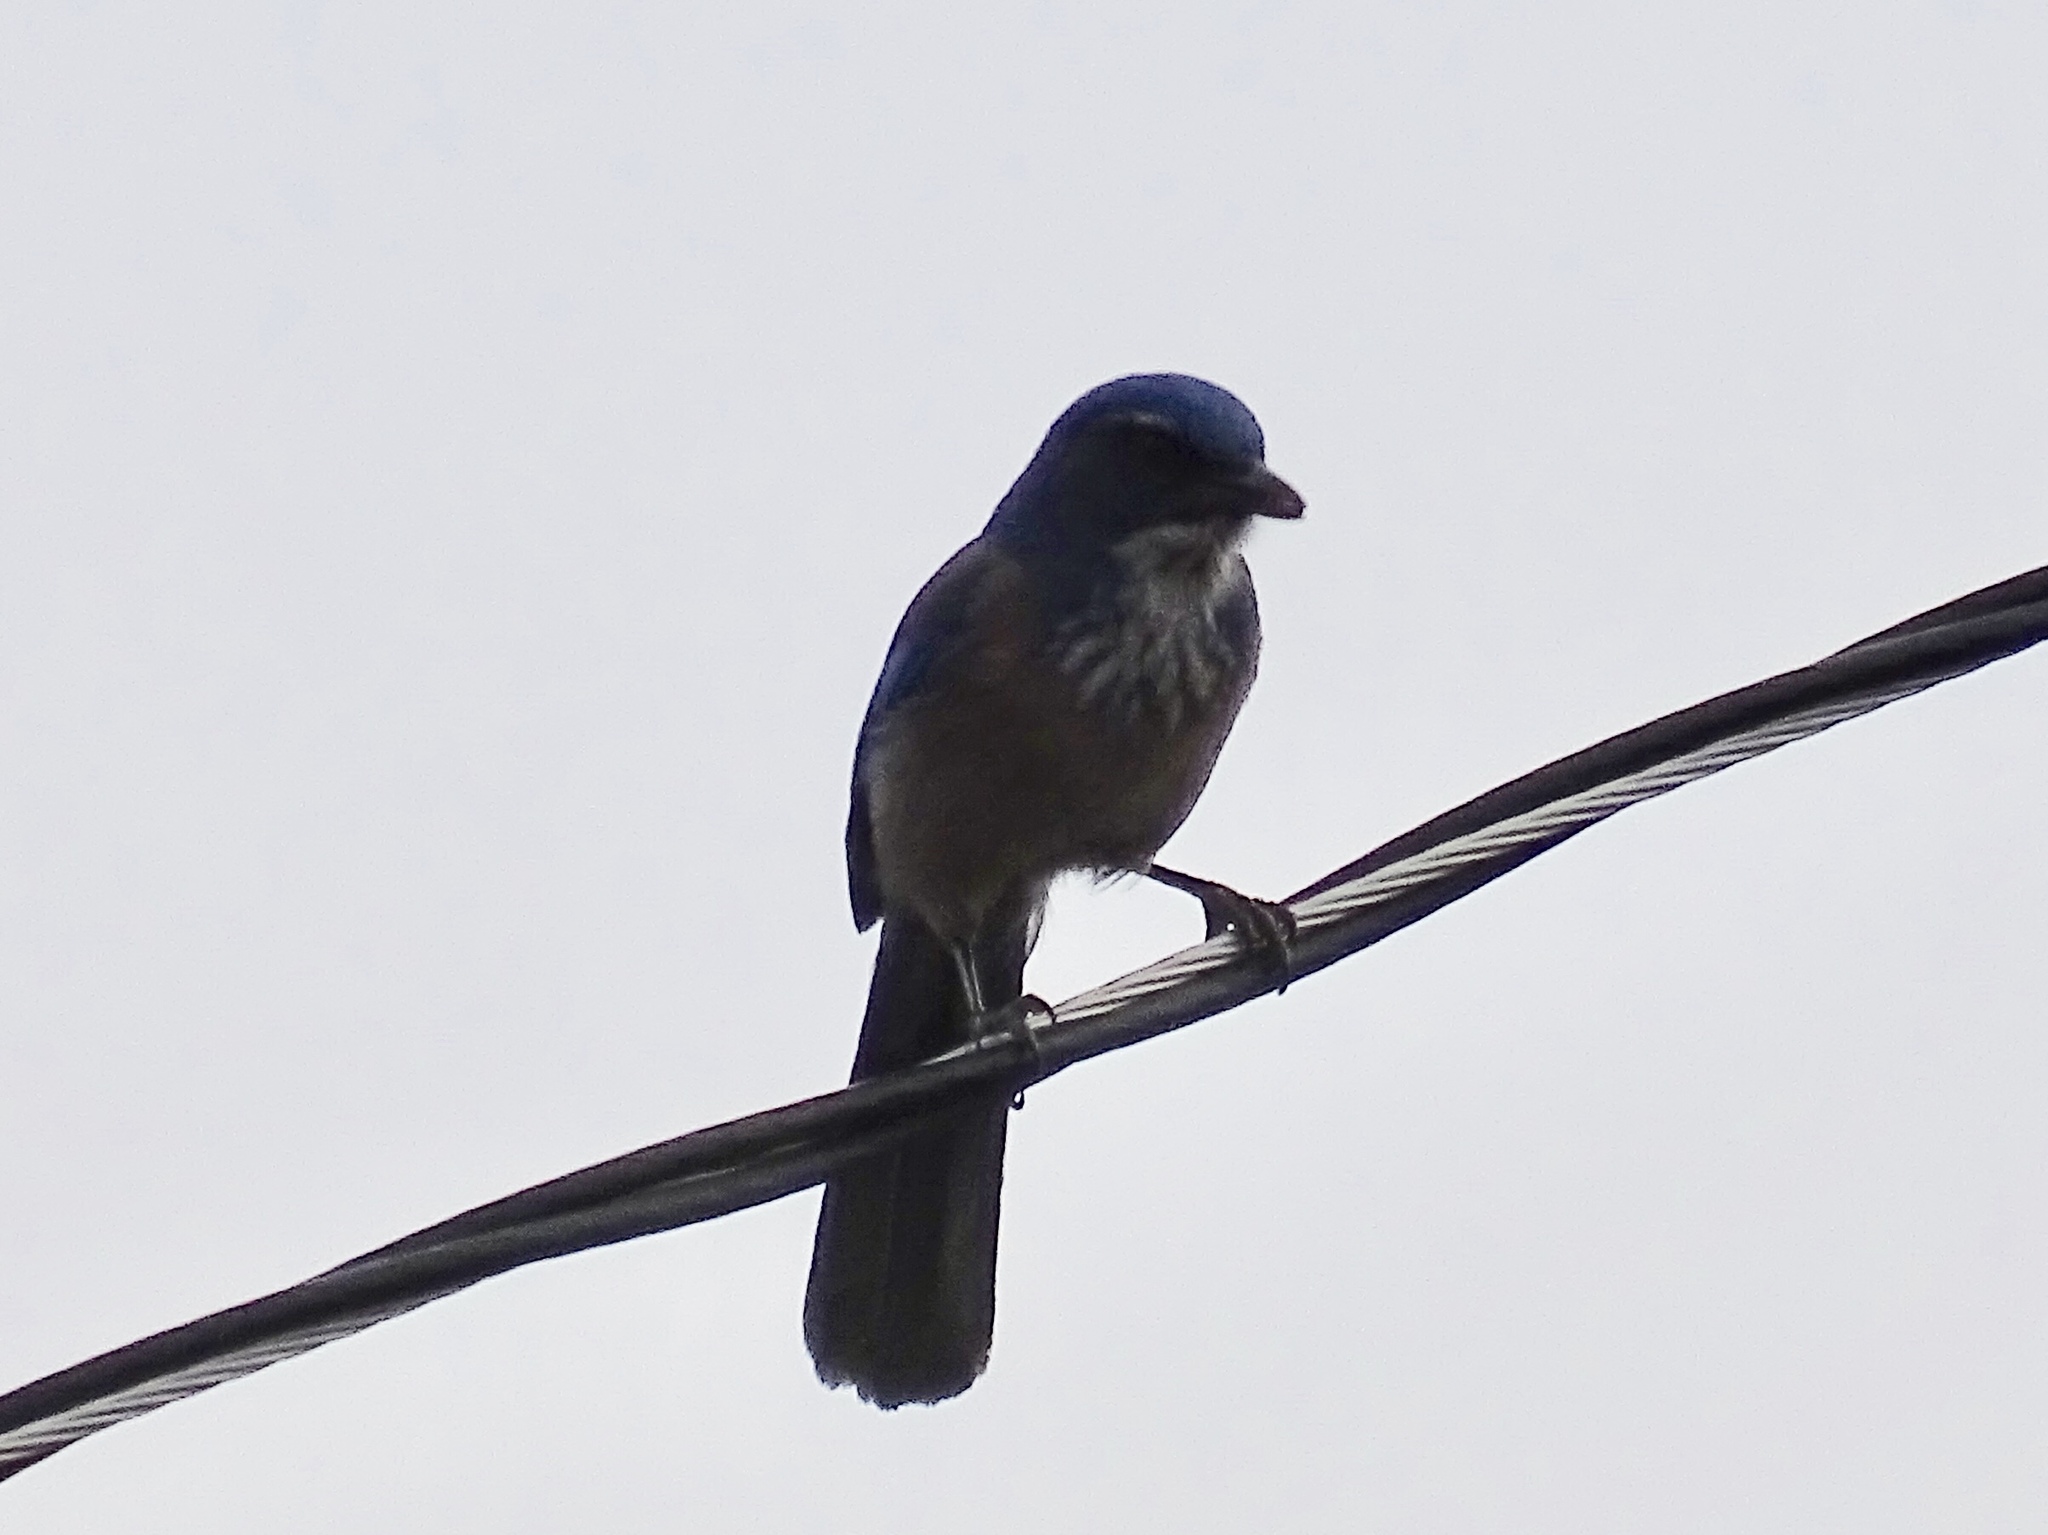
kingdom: Animalia
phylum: Chordata
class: Aves
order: Passeriformes
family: Corvidae
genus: Aphelocoma
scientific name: Aphelocoma woodhouseii
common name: Woodhouse's scrub-jay
